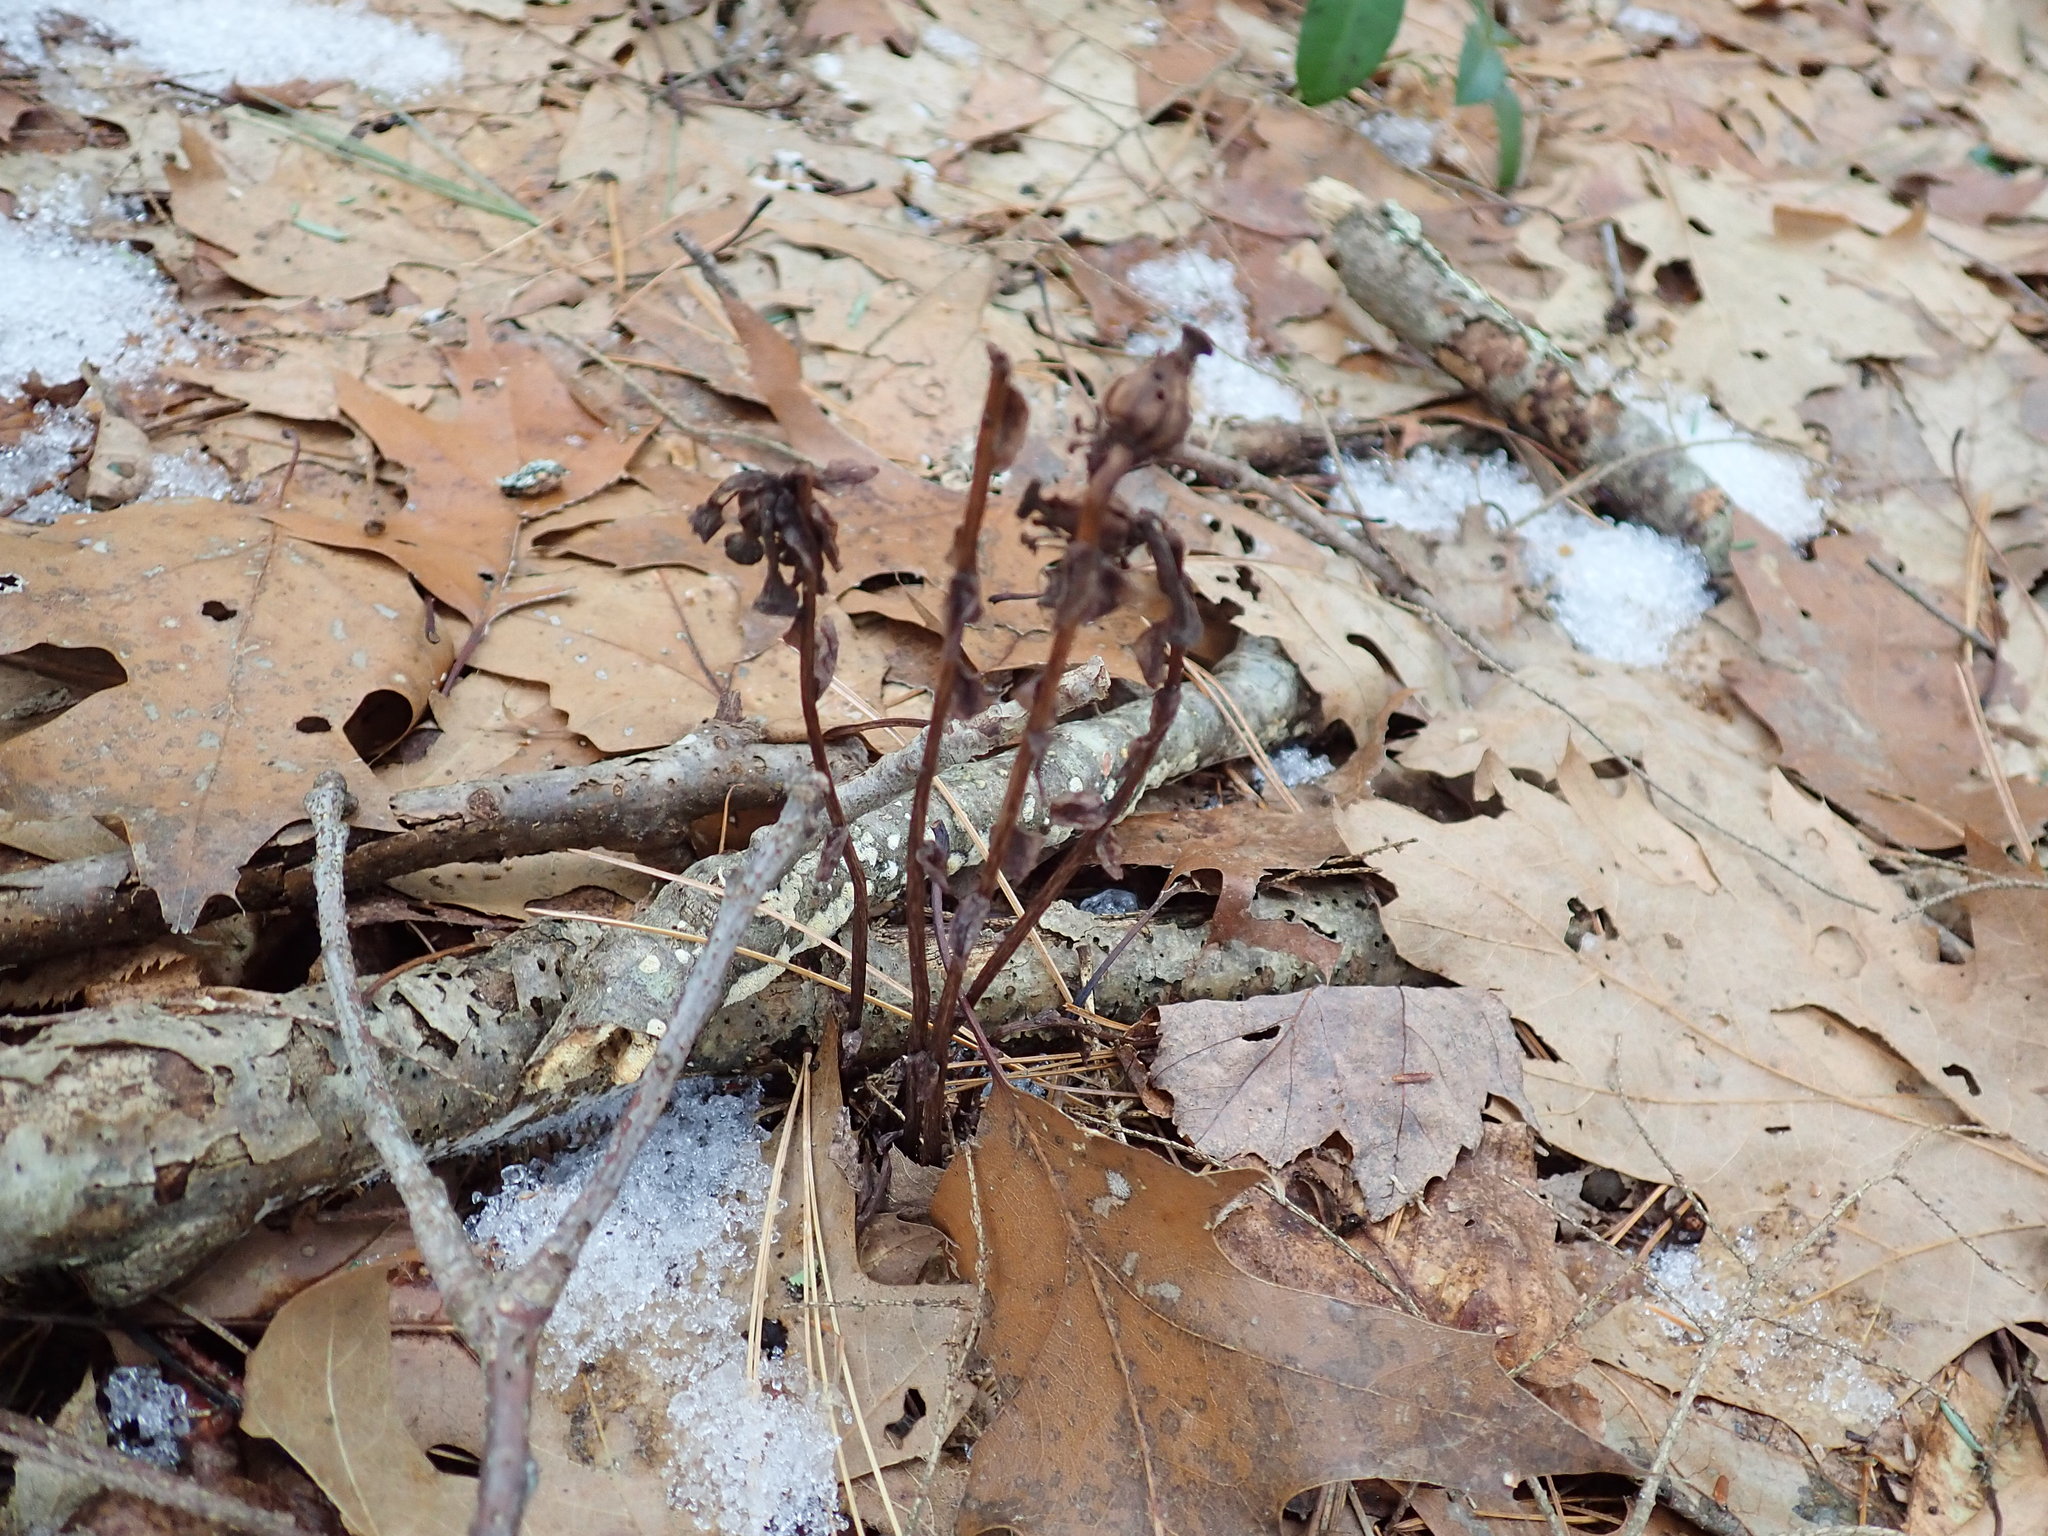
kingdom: Plantae
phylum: Tracheophyta
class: Magnoliopsida
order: Ericales
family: Ericaceae
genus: Monotropa
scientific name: Monotropa uniflora
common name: Convulsion root
